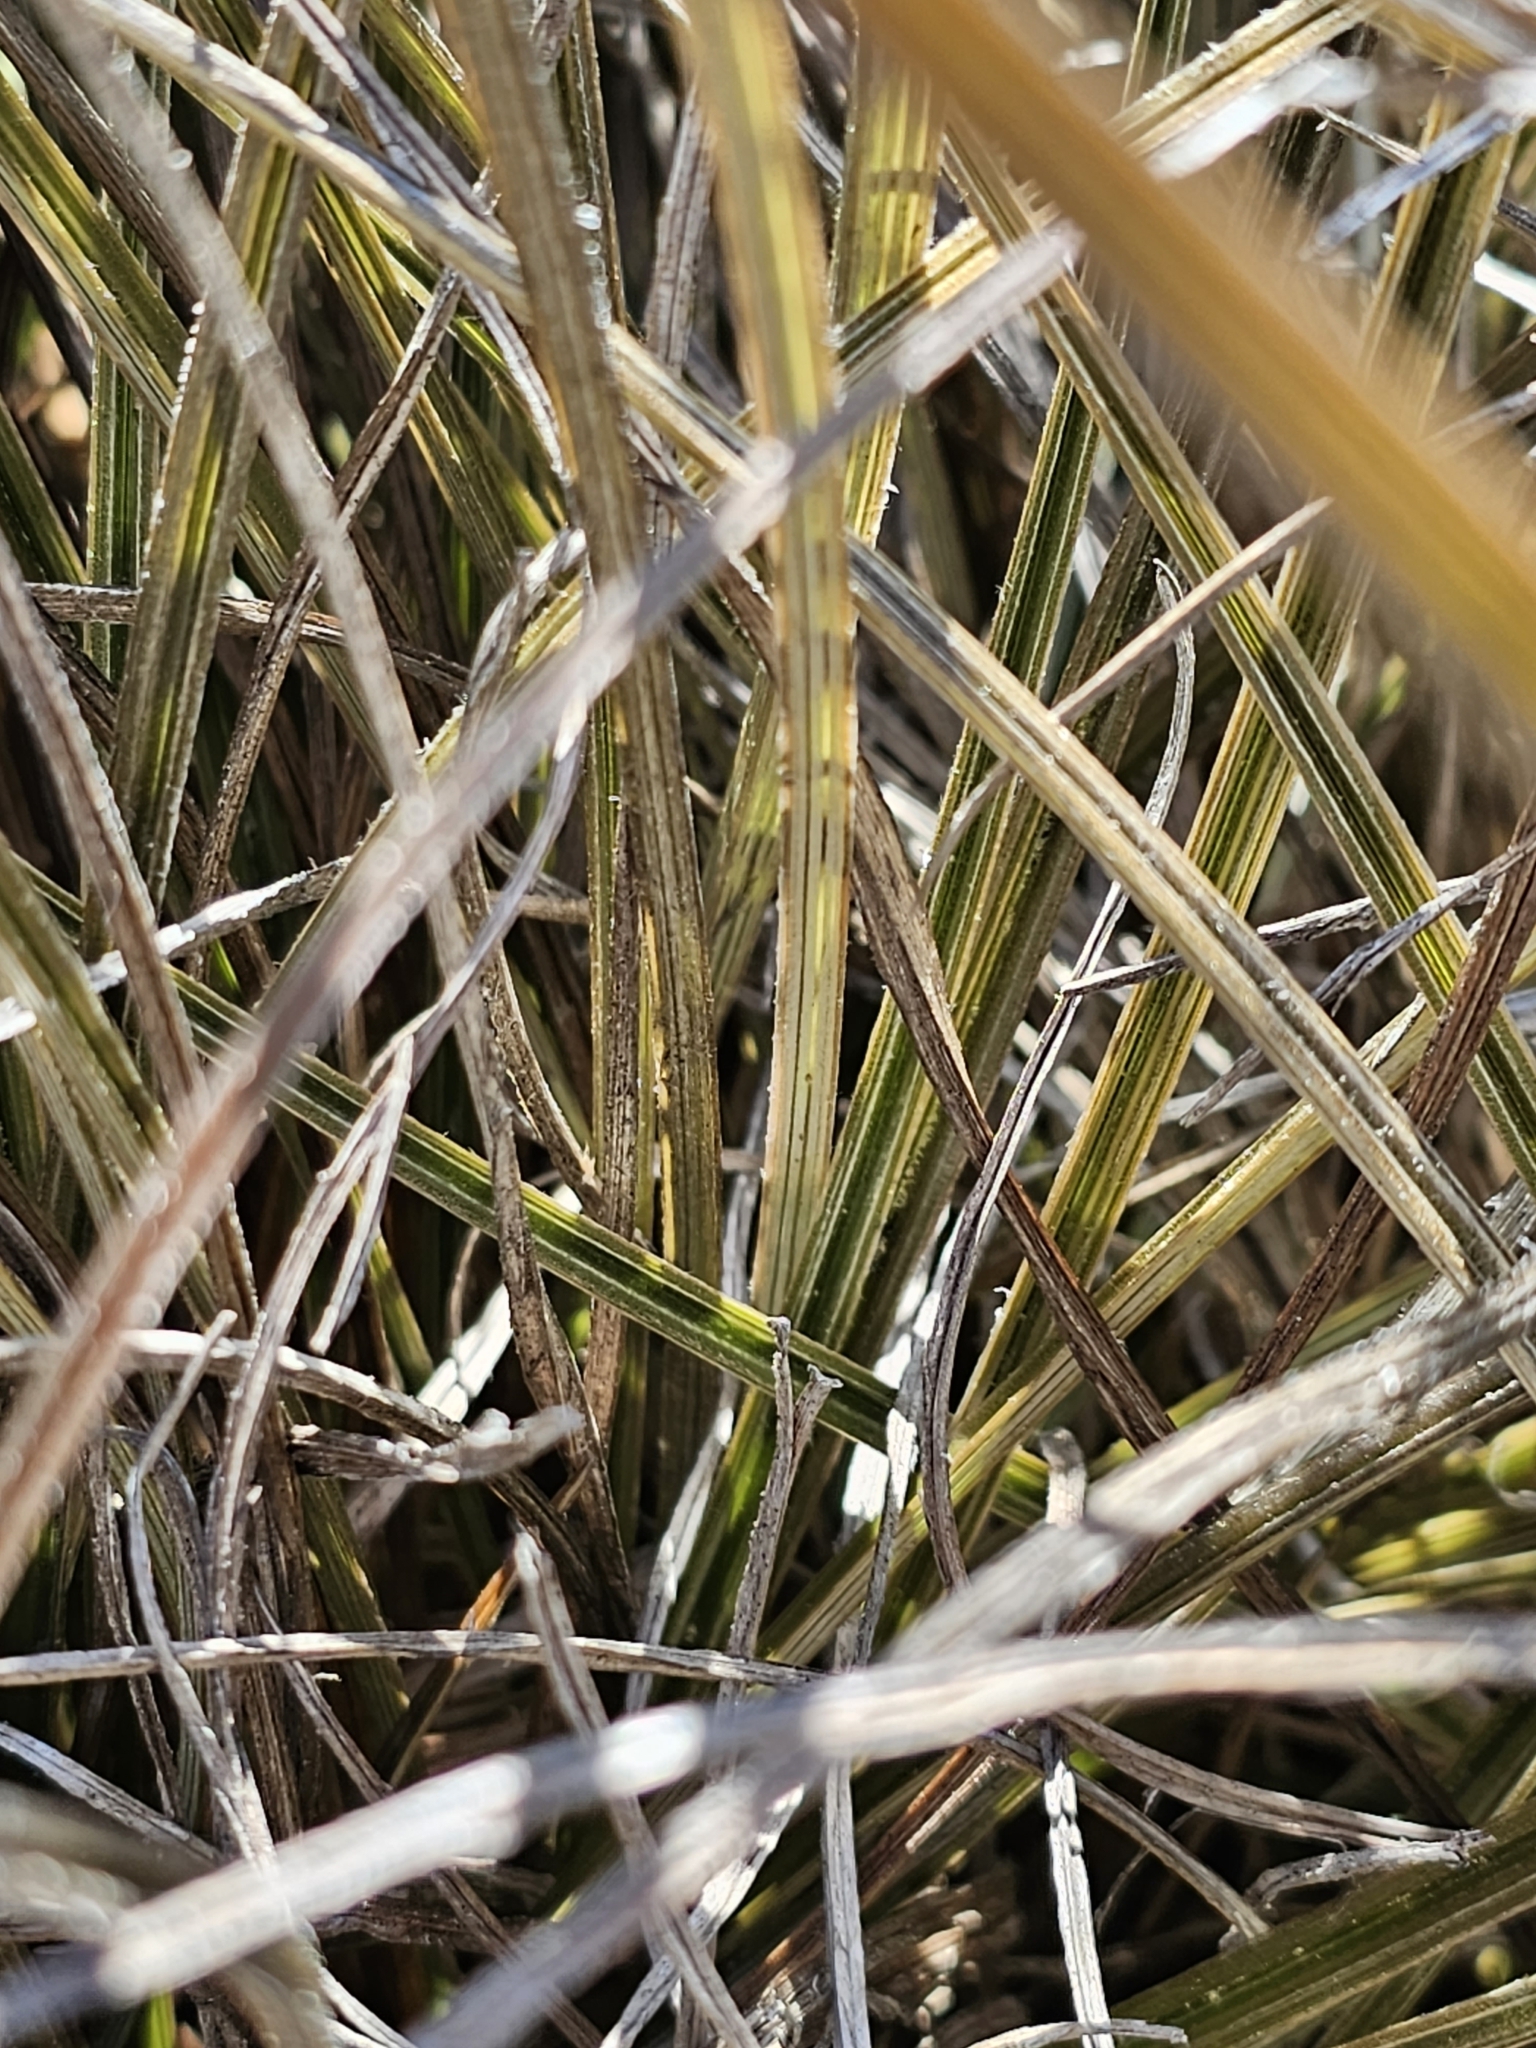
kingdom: Plantae
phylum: Tracheophyta
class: Liliopsida
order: Asparagales
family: Asteliaceae
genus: Astelia
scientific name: Astelia graminea
